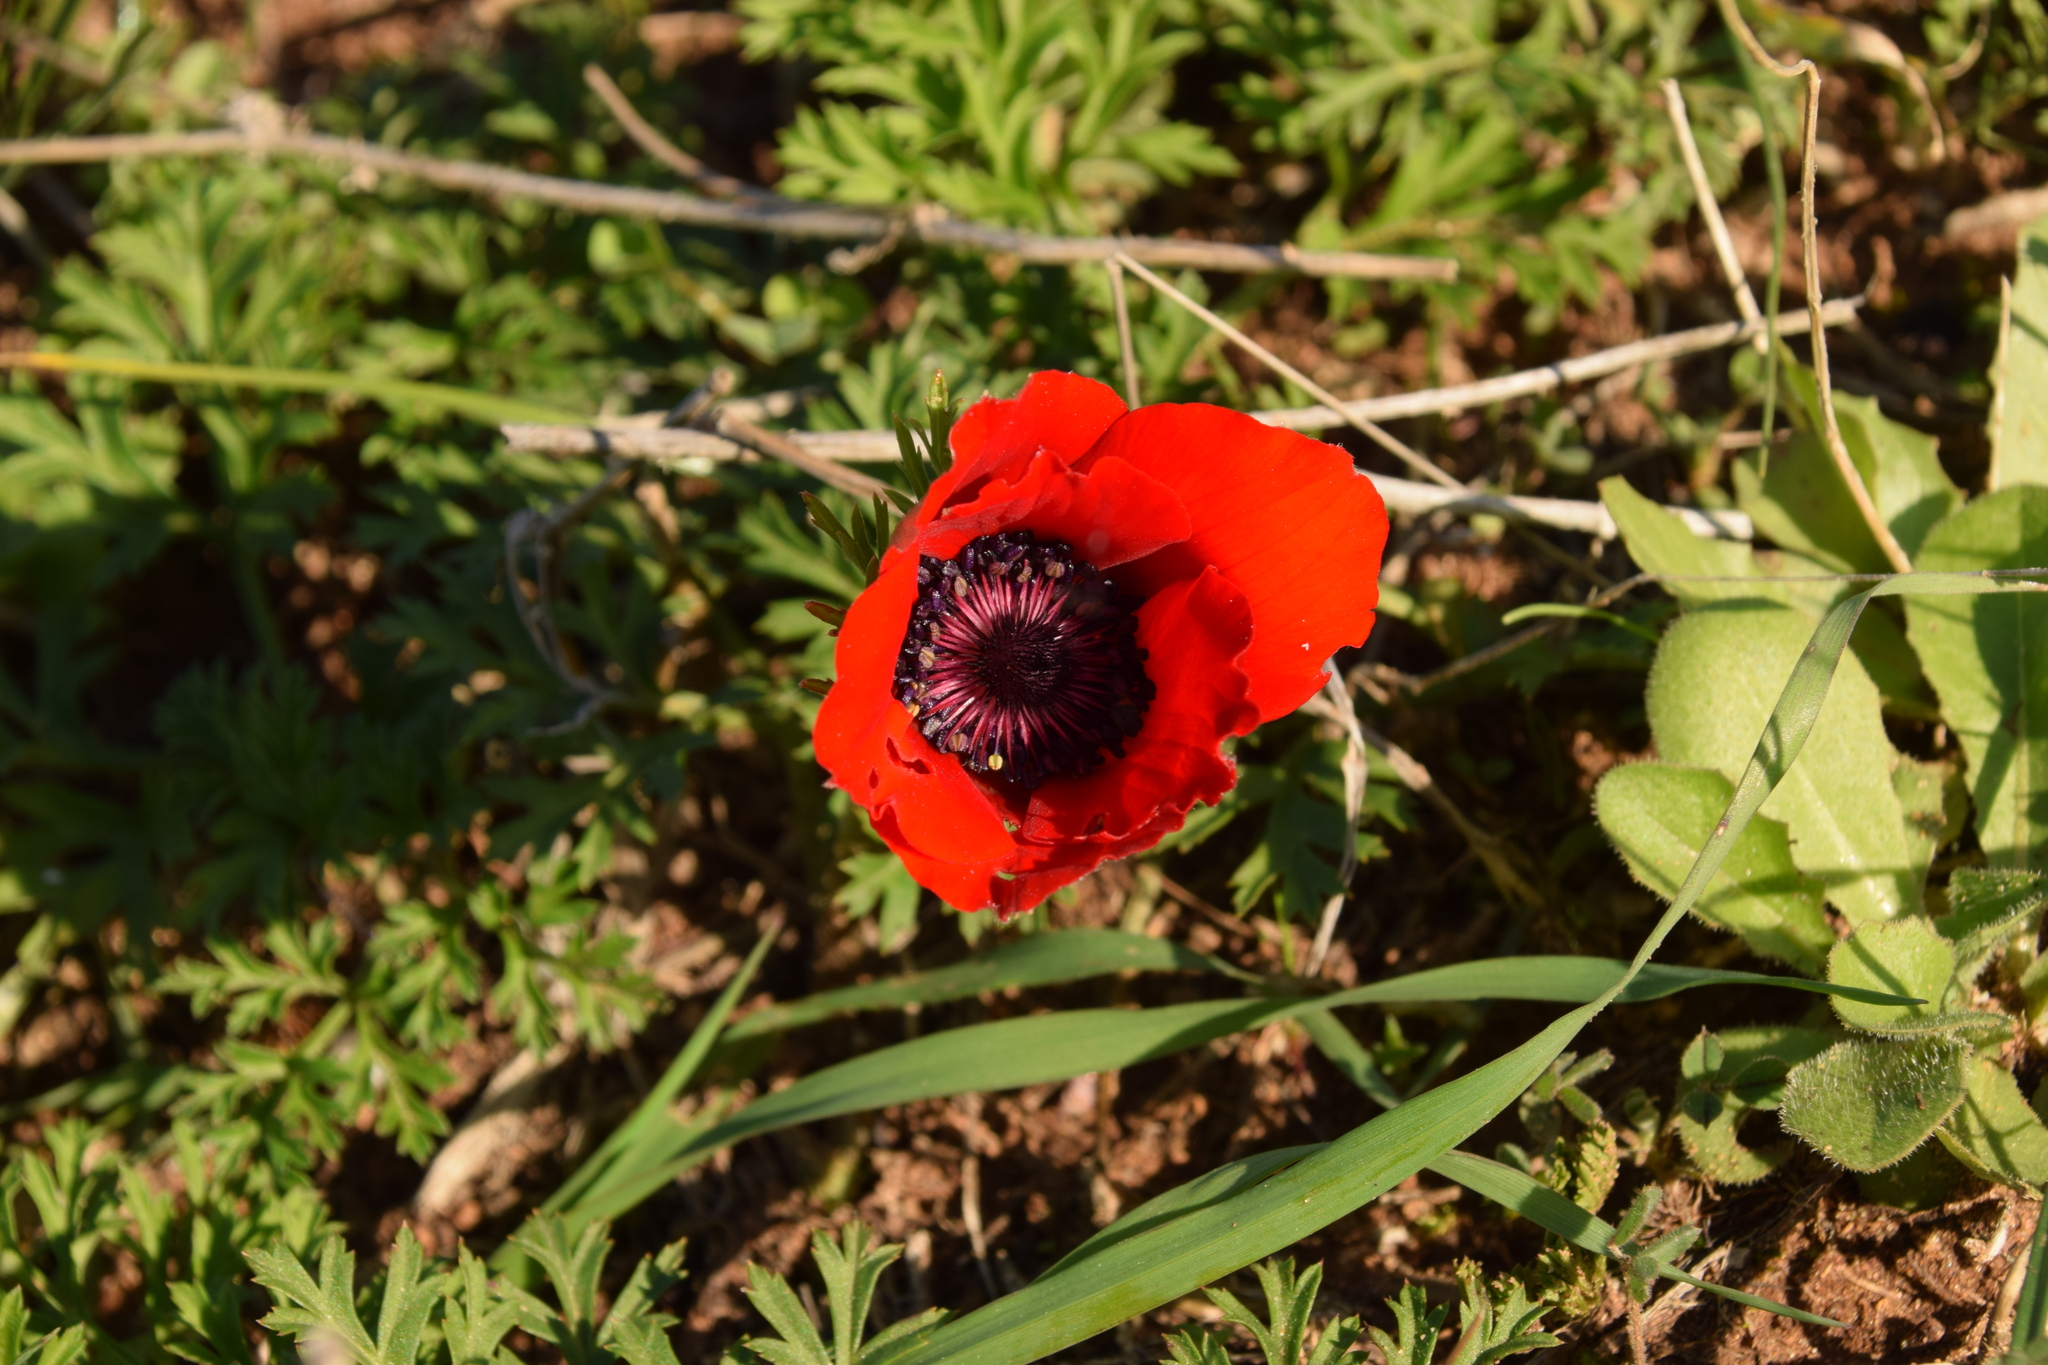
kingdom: Plantae
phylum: Tracheophyta
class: Magnoliopsida
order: Ranunculales
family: Ranunculaceae
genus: Anemone
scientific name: Anemone coronaria
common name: Poppy anemone
